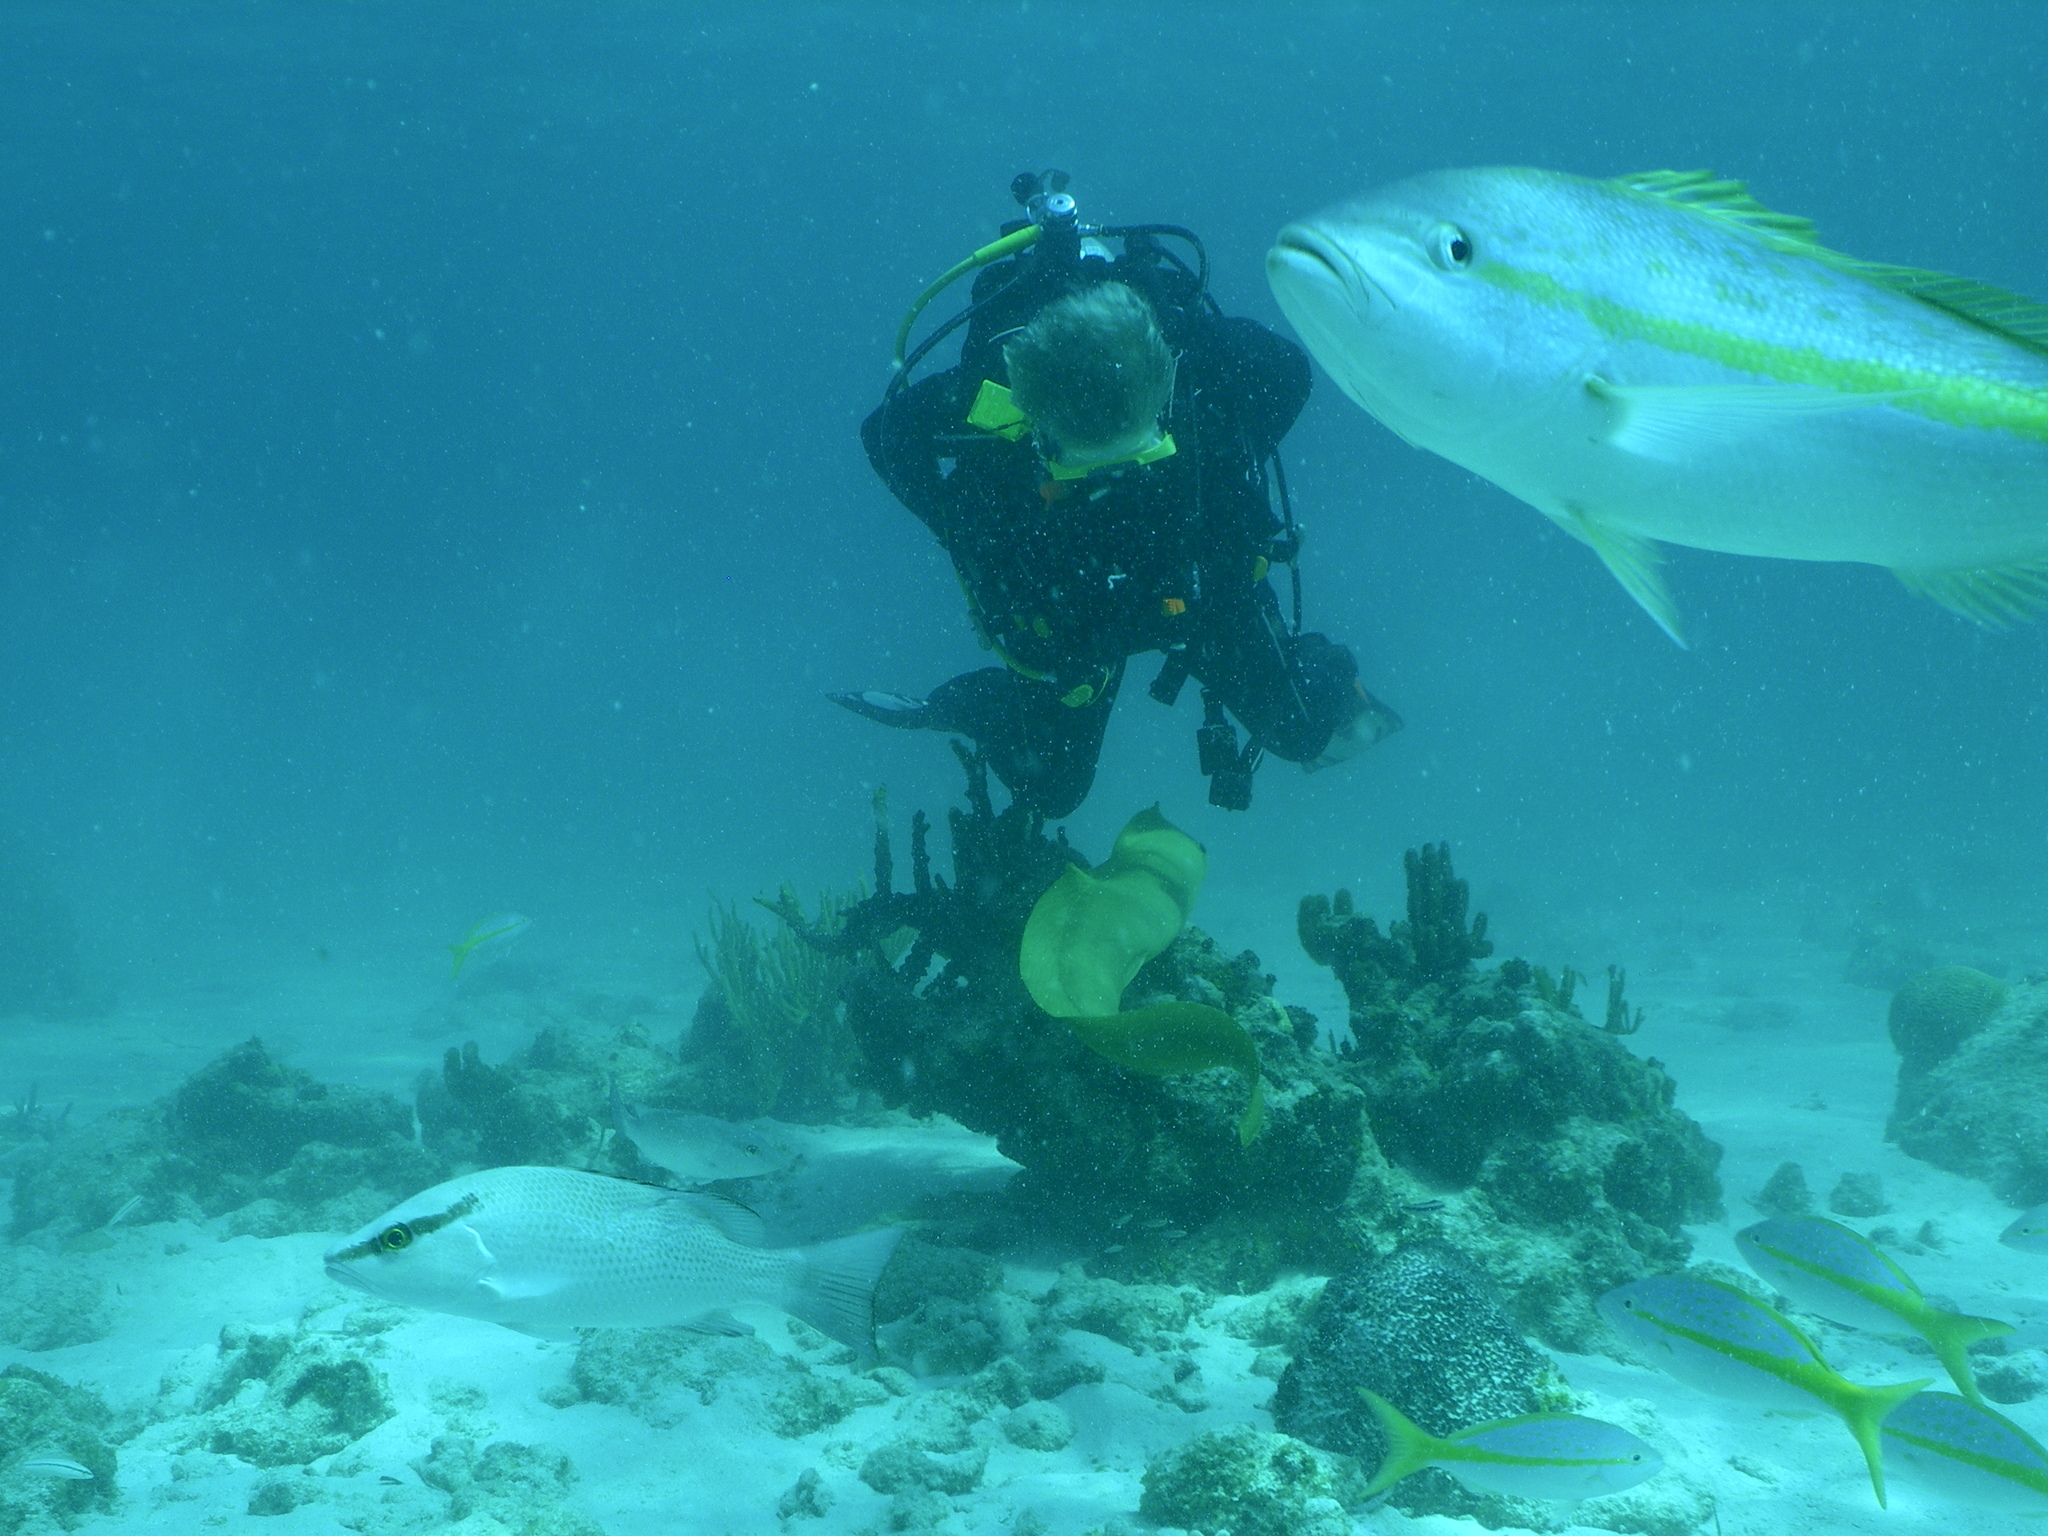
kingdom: Animalia
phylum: Chordata
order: Perciformes
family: Lutjanidae
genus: Ocyurus
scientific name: Ocyurus chrysurus
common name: Yellowtail snapper
